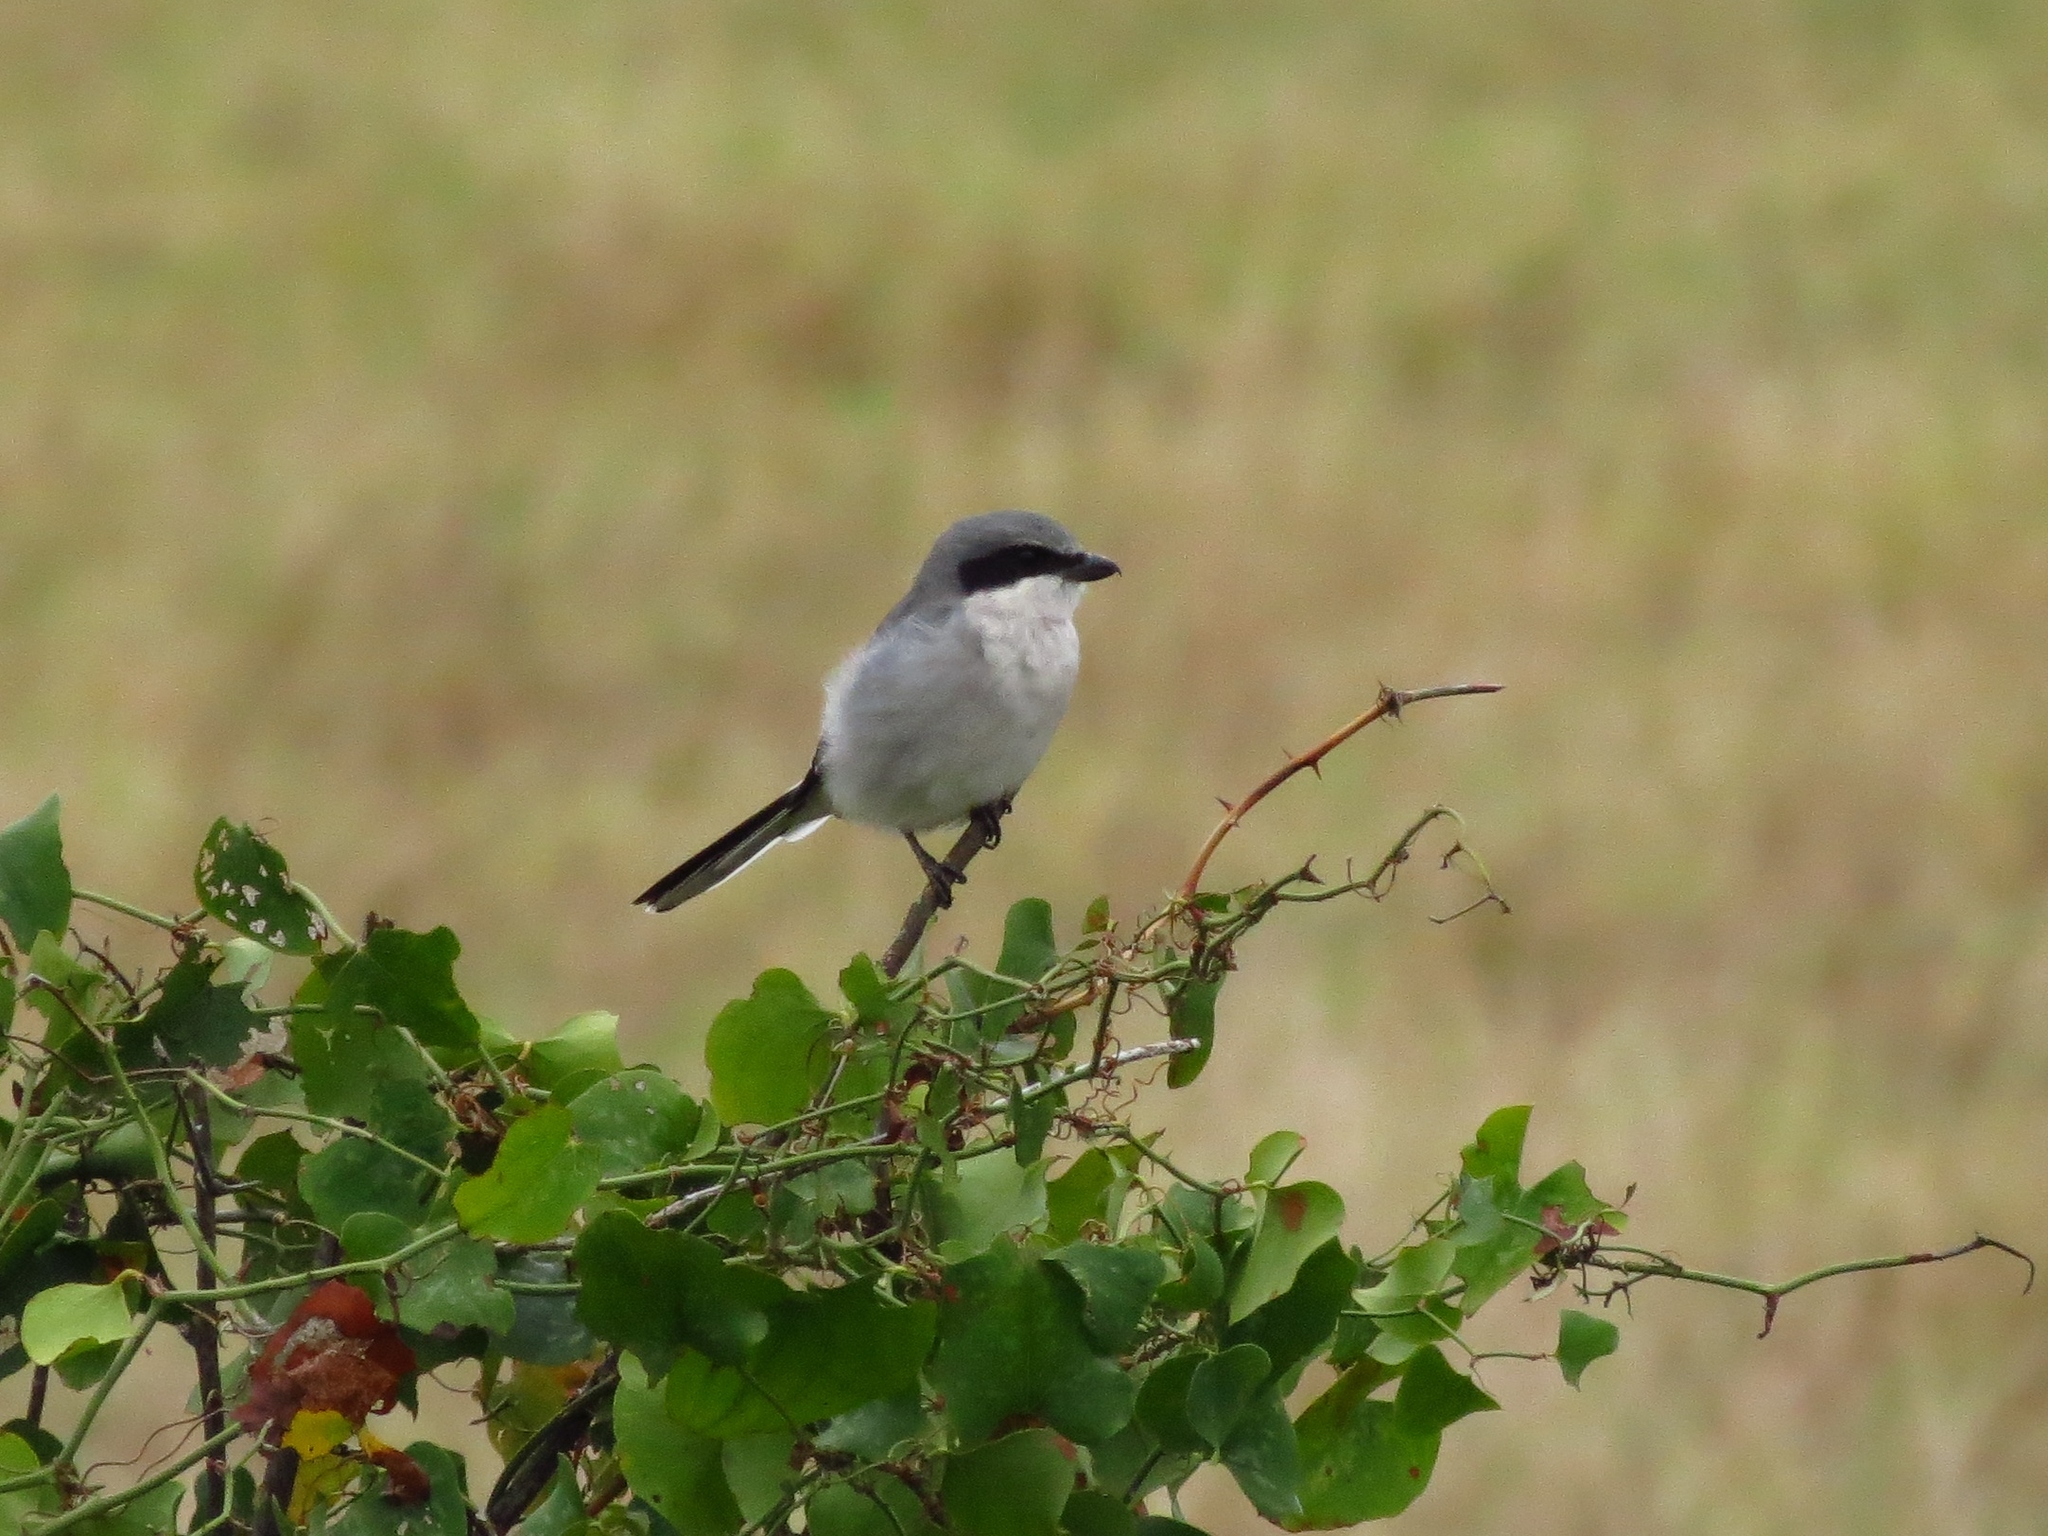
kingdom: Animalia
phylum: Chordata
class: Aves
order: Passeriformes
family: Laniidae
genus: Lanius
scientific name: Lanius ludovicianus
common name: Loggerhead shrike
